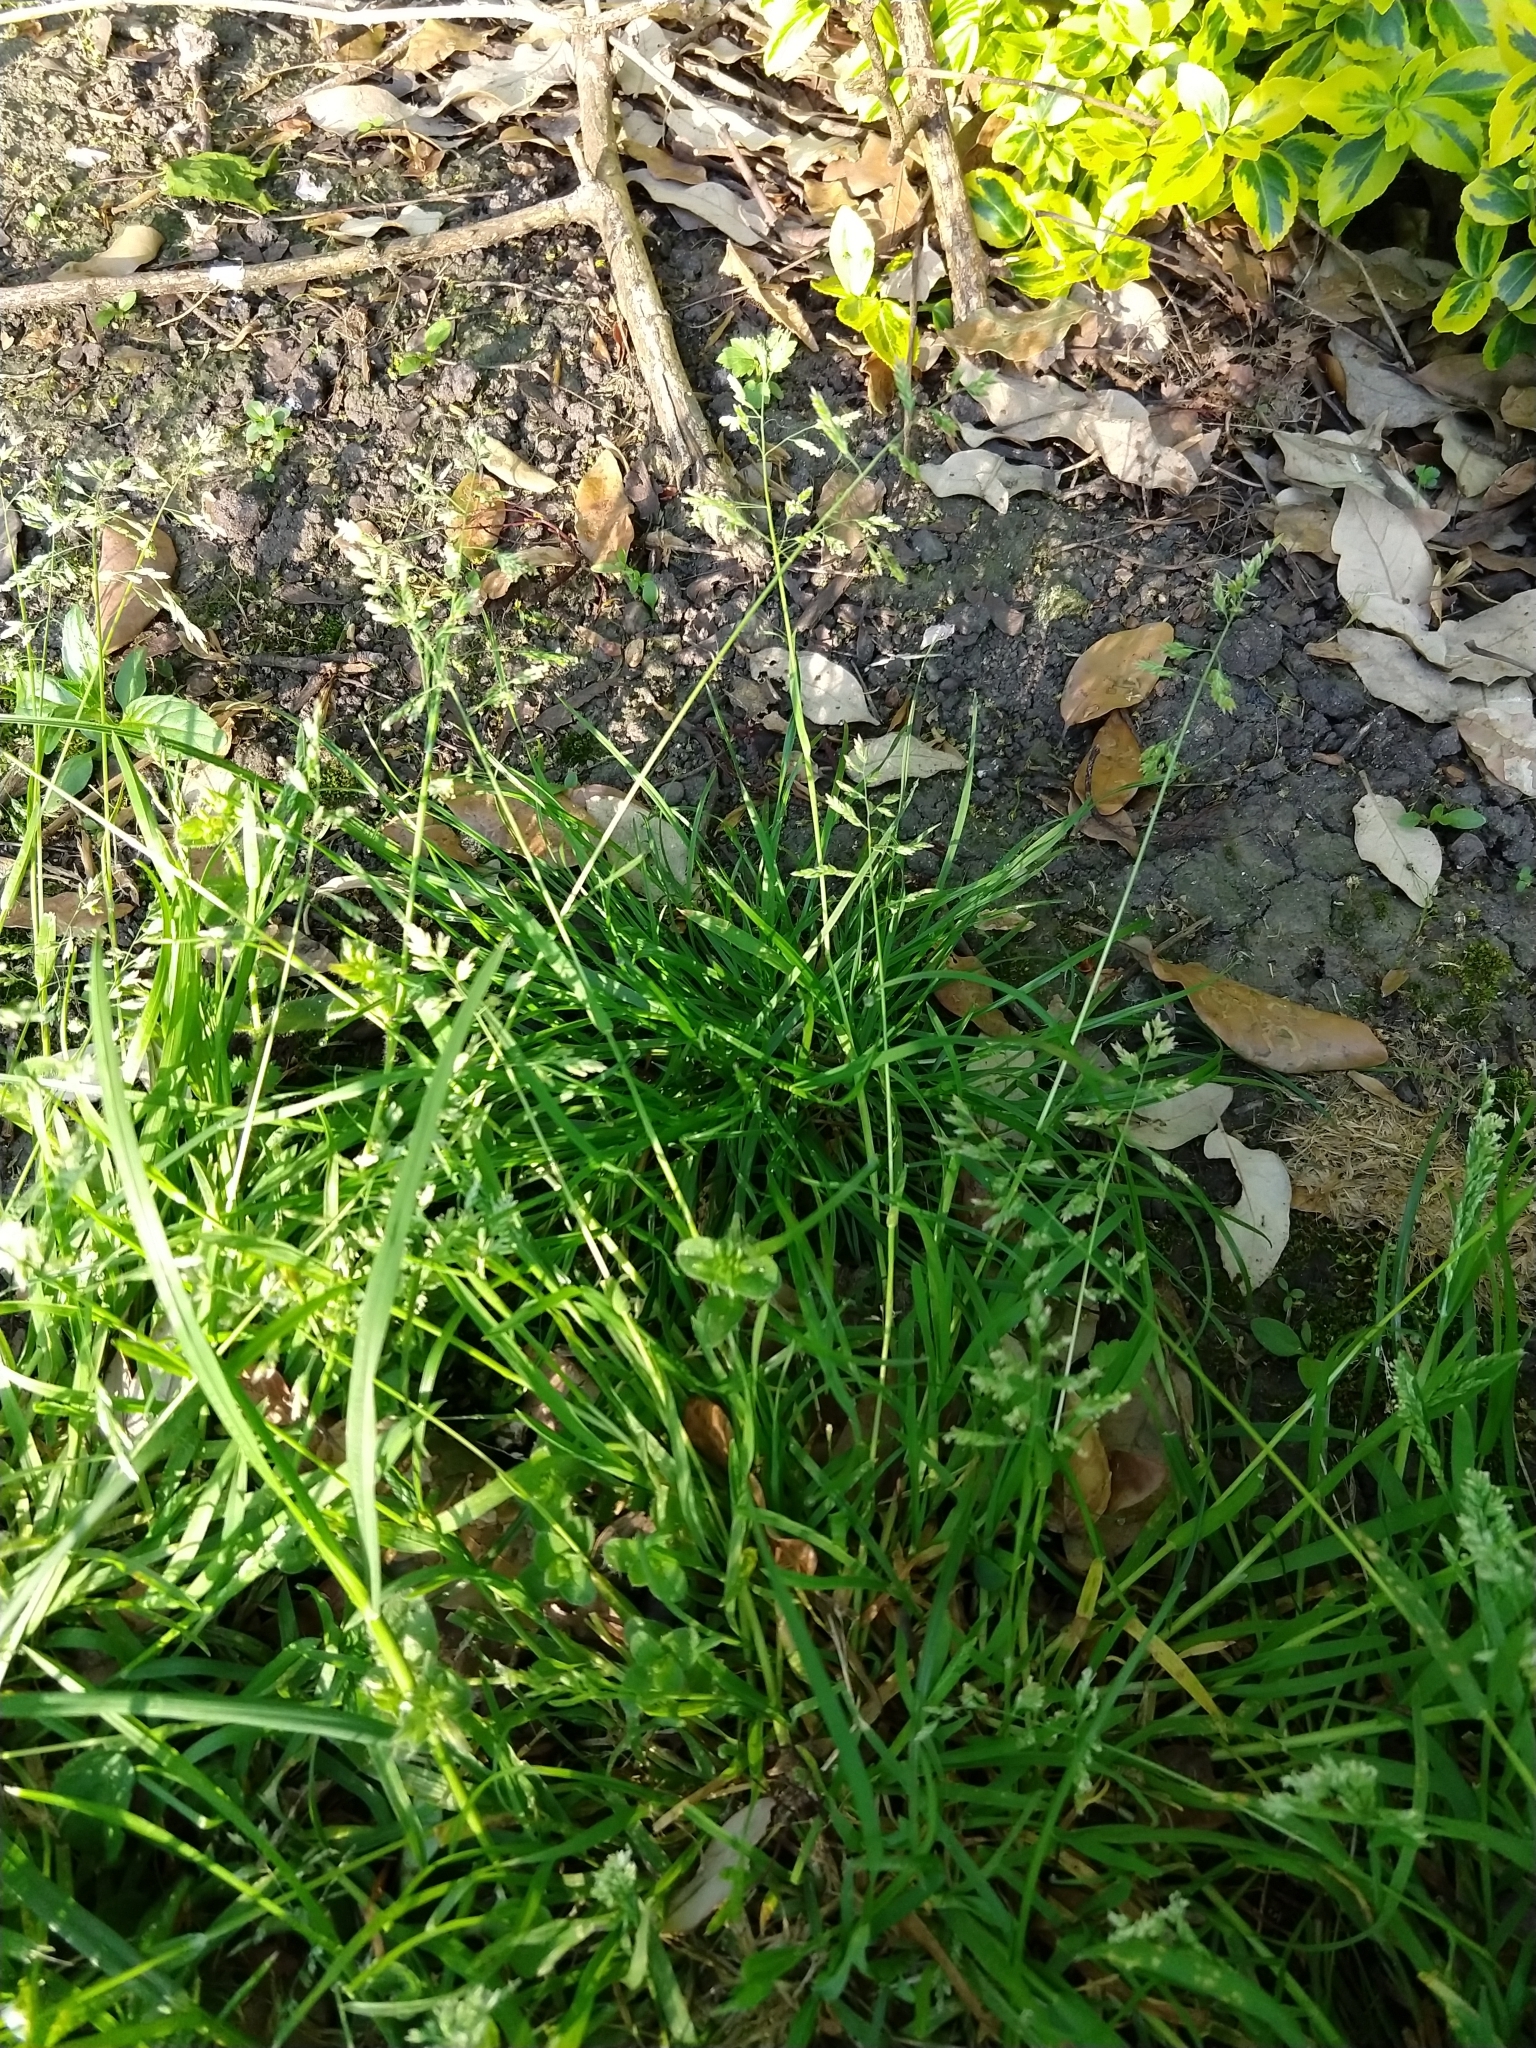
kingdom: Plantae
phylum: Tracheophyta
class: Liliopsida
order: Poales
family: Poaceae
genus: Poa
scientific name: Poa annua
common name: Annual bluegrass
